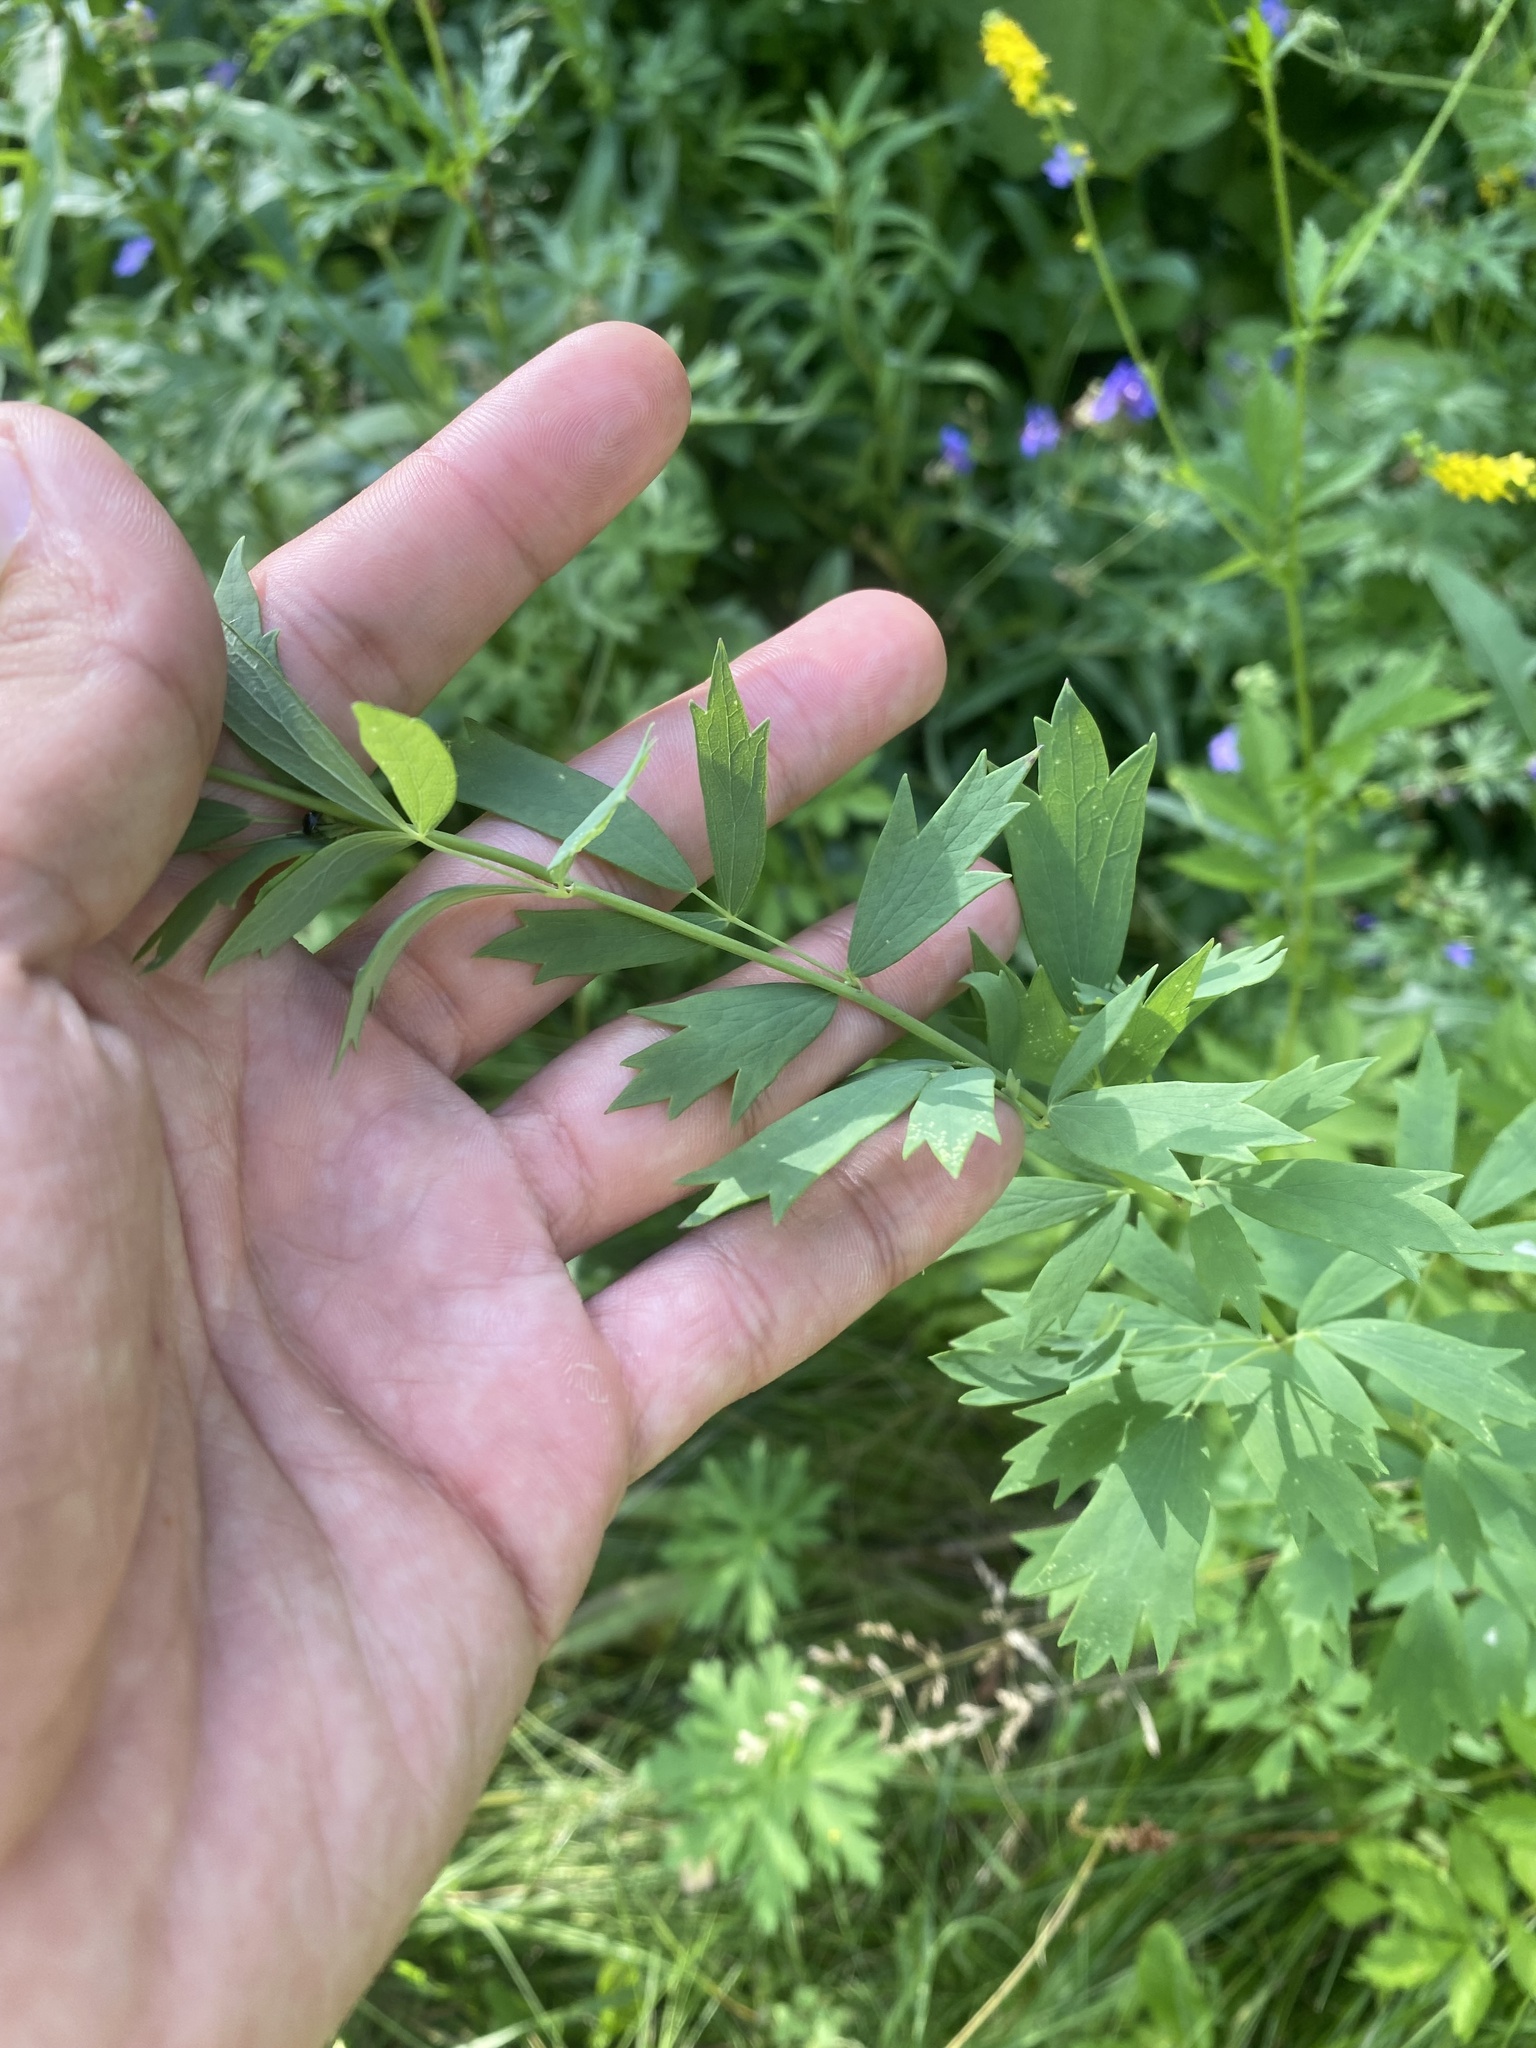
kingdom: Plantae
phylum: Tracheophyta
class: Magnoliopsida
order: Ranunculales
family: Ranunculaceae
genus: Thalictrum
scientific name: Thalictrum simplex
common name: Small meadow-rue
